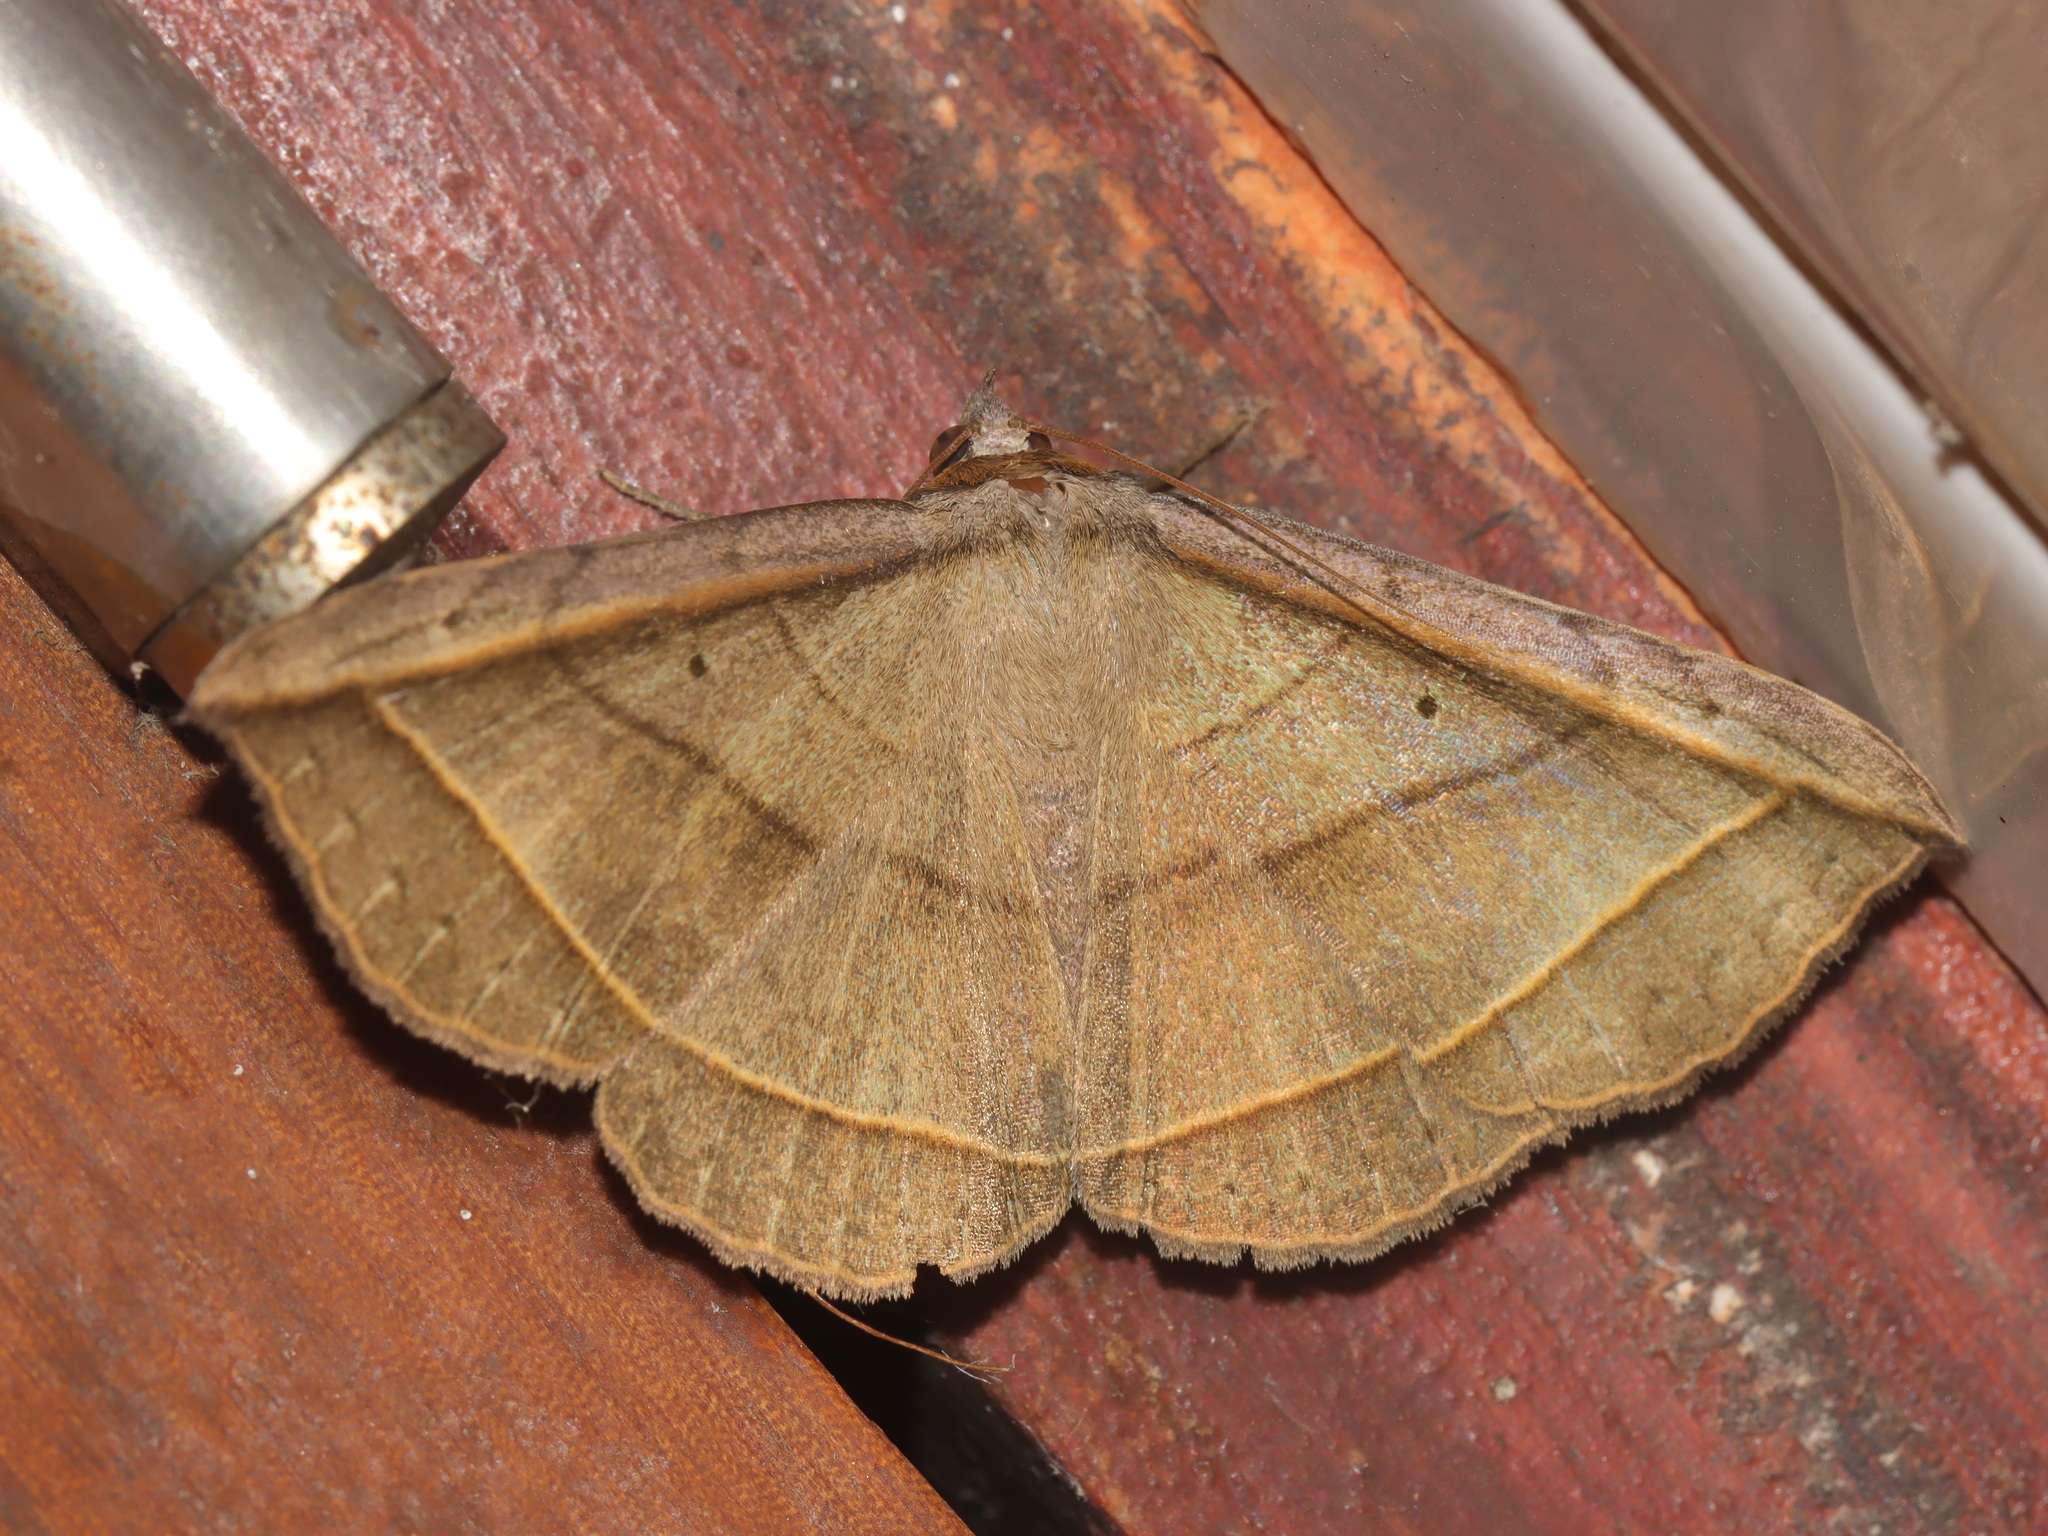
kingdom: Animalia
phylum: Arthropoda
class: Insecta
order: Lepidoptera
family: Erebidae
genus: Entomogramma
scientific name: Entomogramma fautrix
